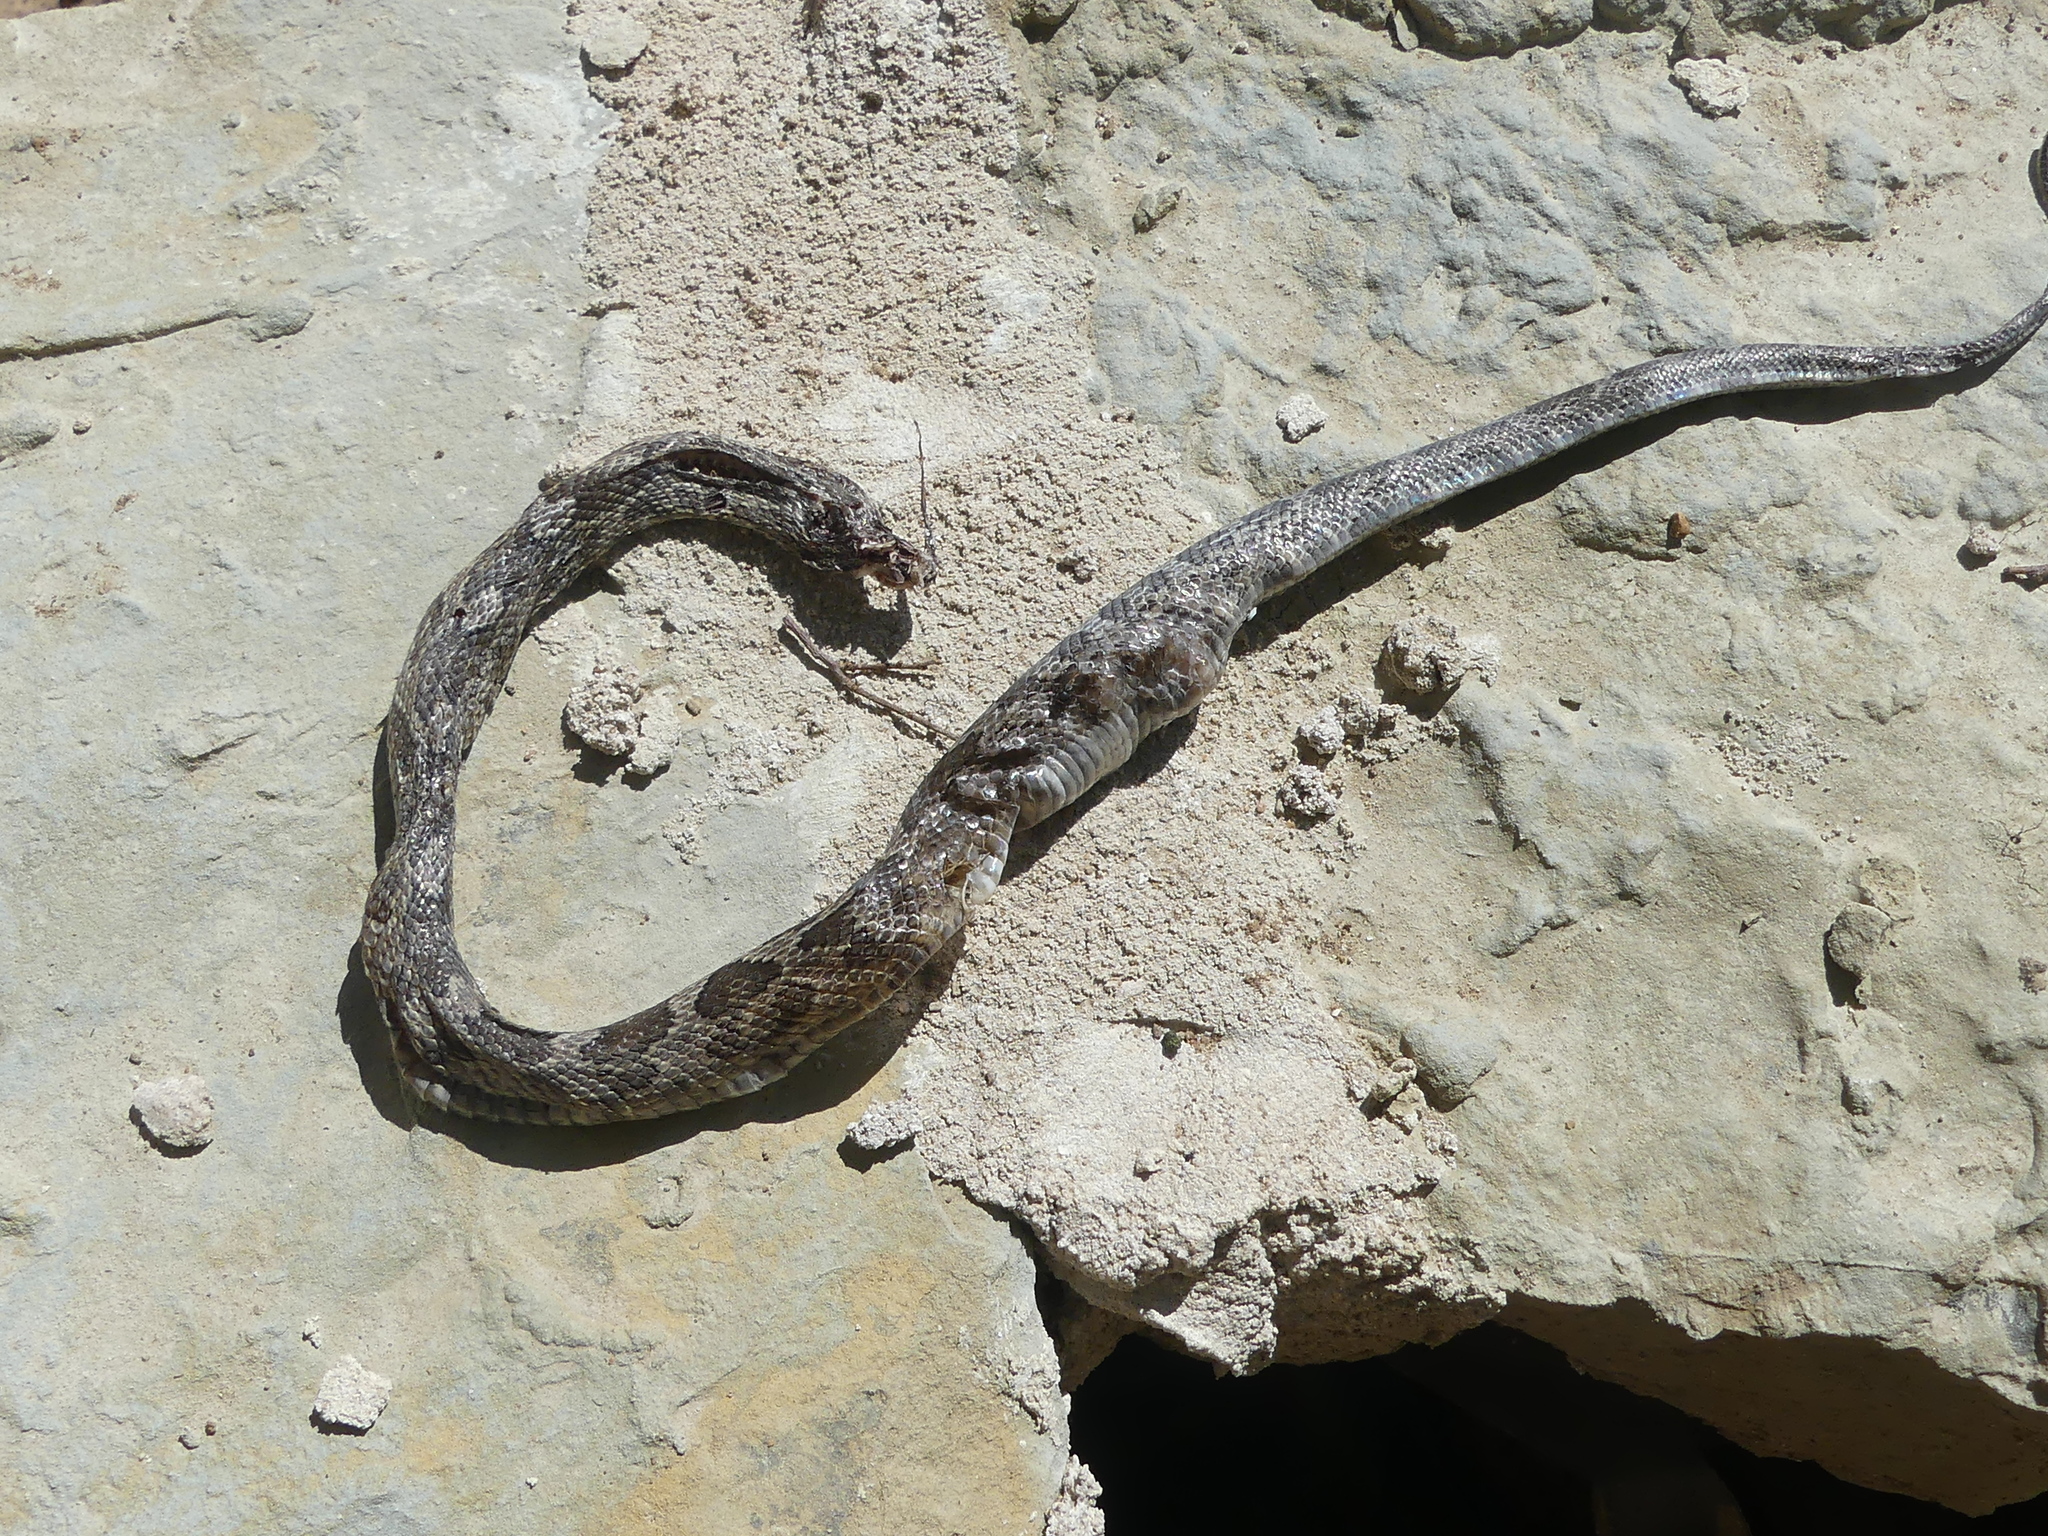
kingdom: Animalia
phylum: Chordata
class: Squamata
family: Colubridae
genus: Pantherophis
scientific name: Pantherophis obsoletus
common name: Black rat snake
